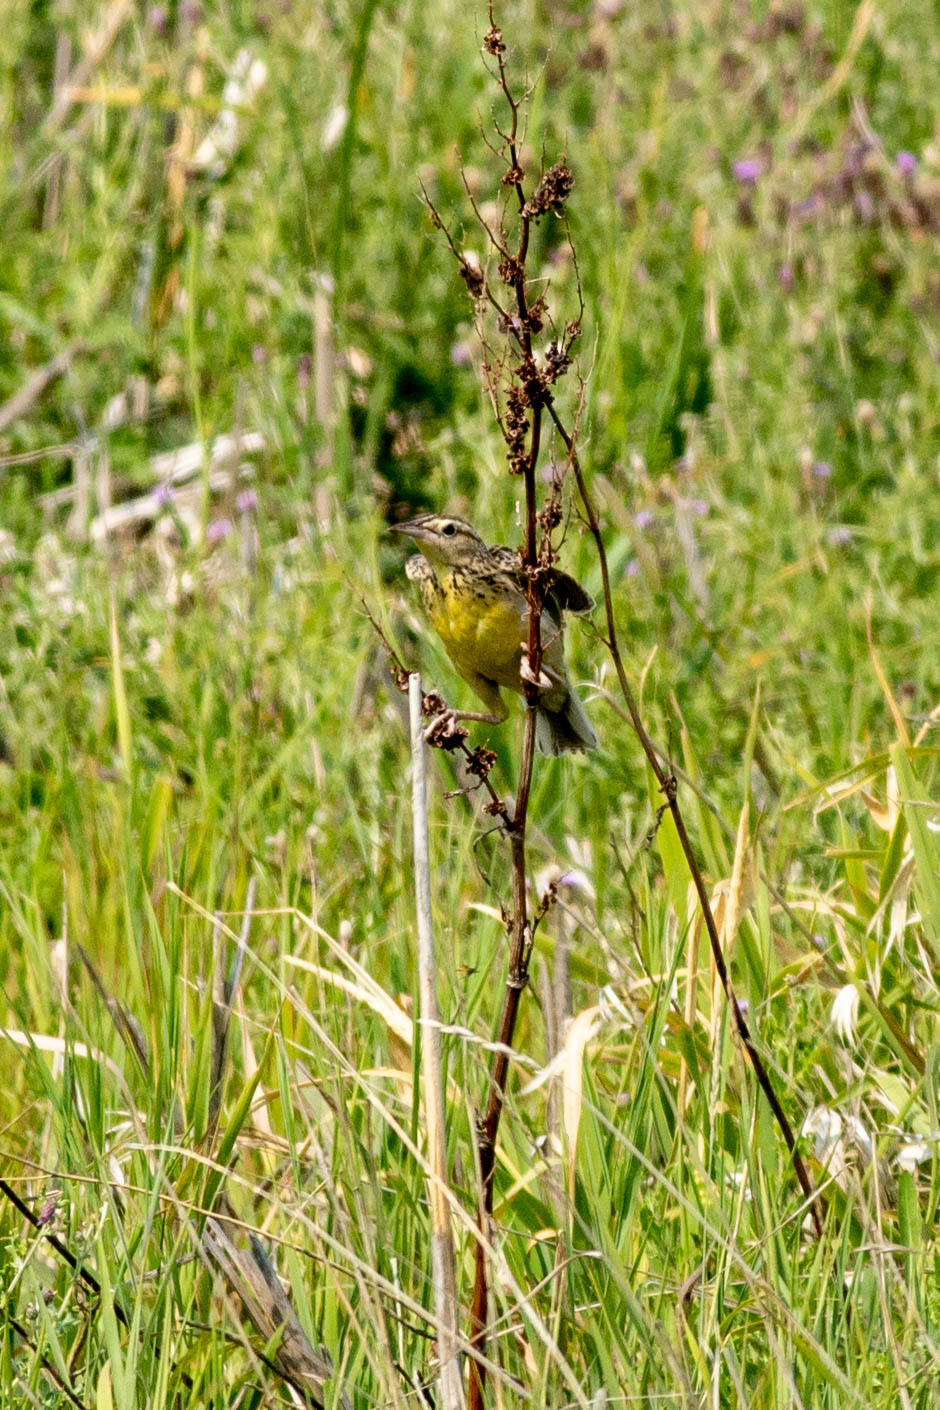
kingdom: Animalia
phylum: Chordata
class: Aves
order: Passeriformes
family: Icteridae
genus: Sturnella
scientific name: Sturnella neglecta
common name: Western meadowlark
